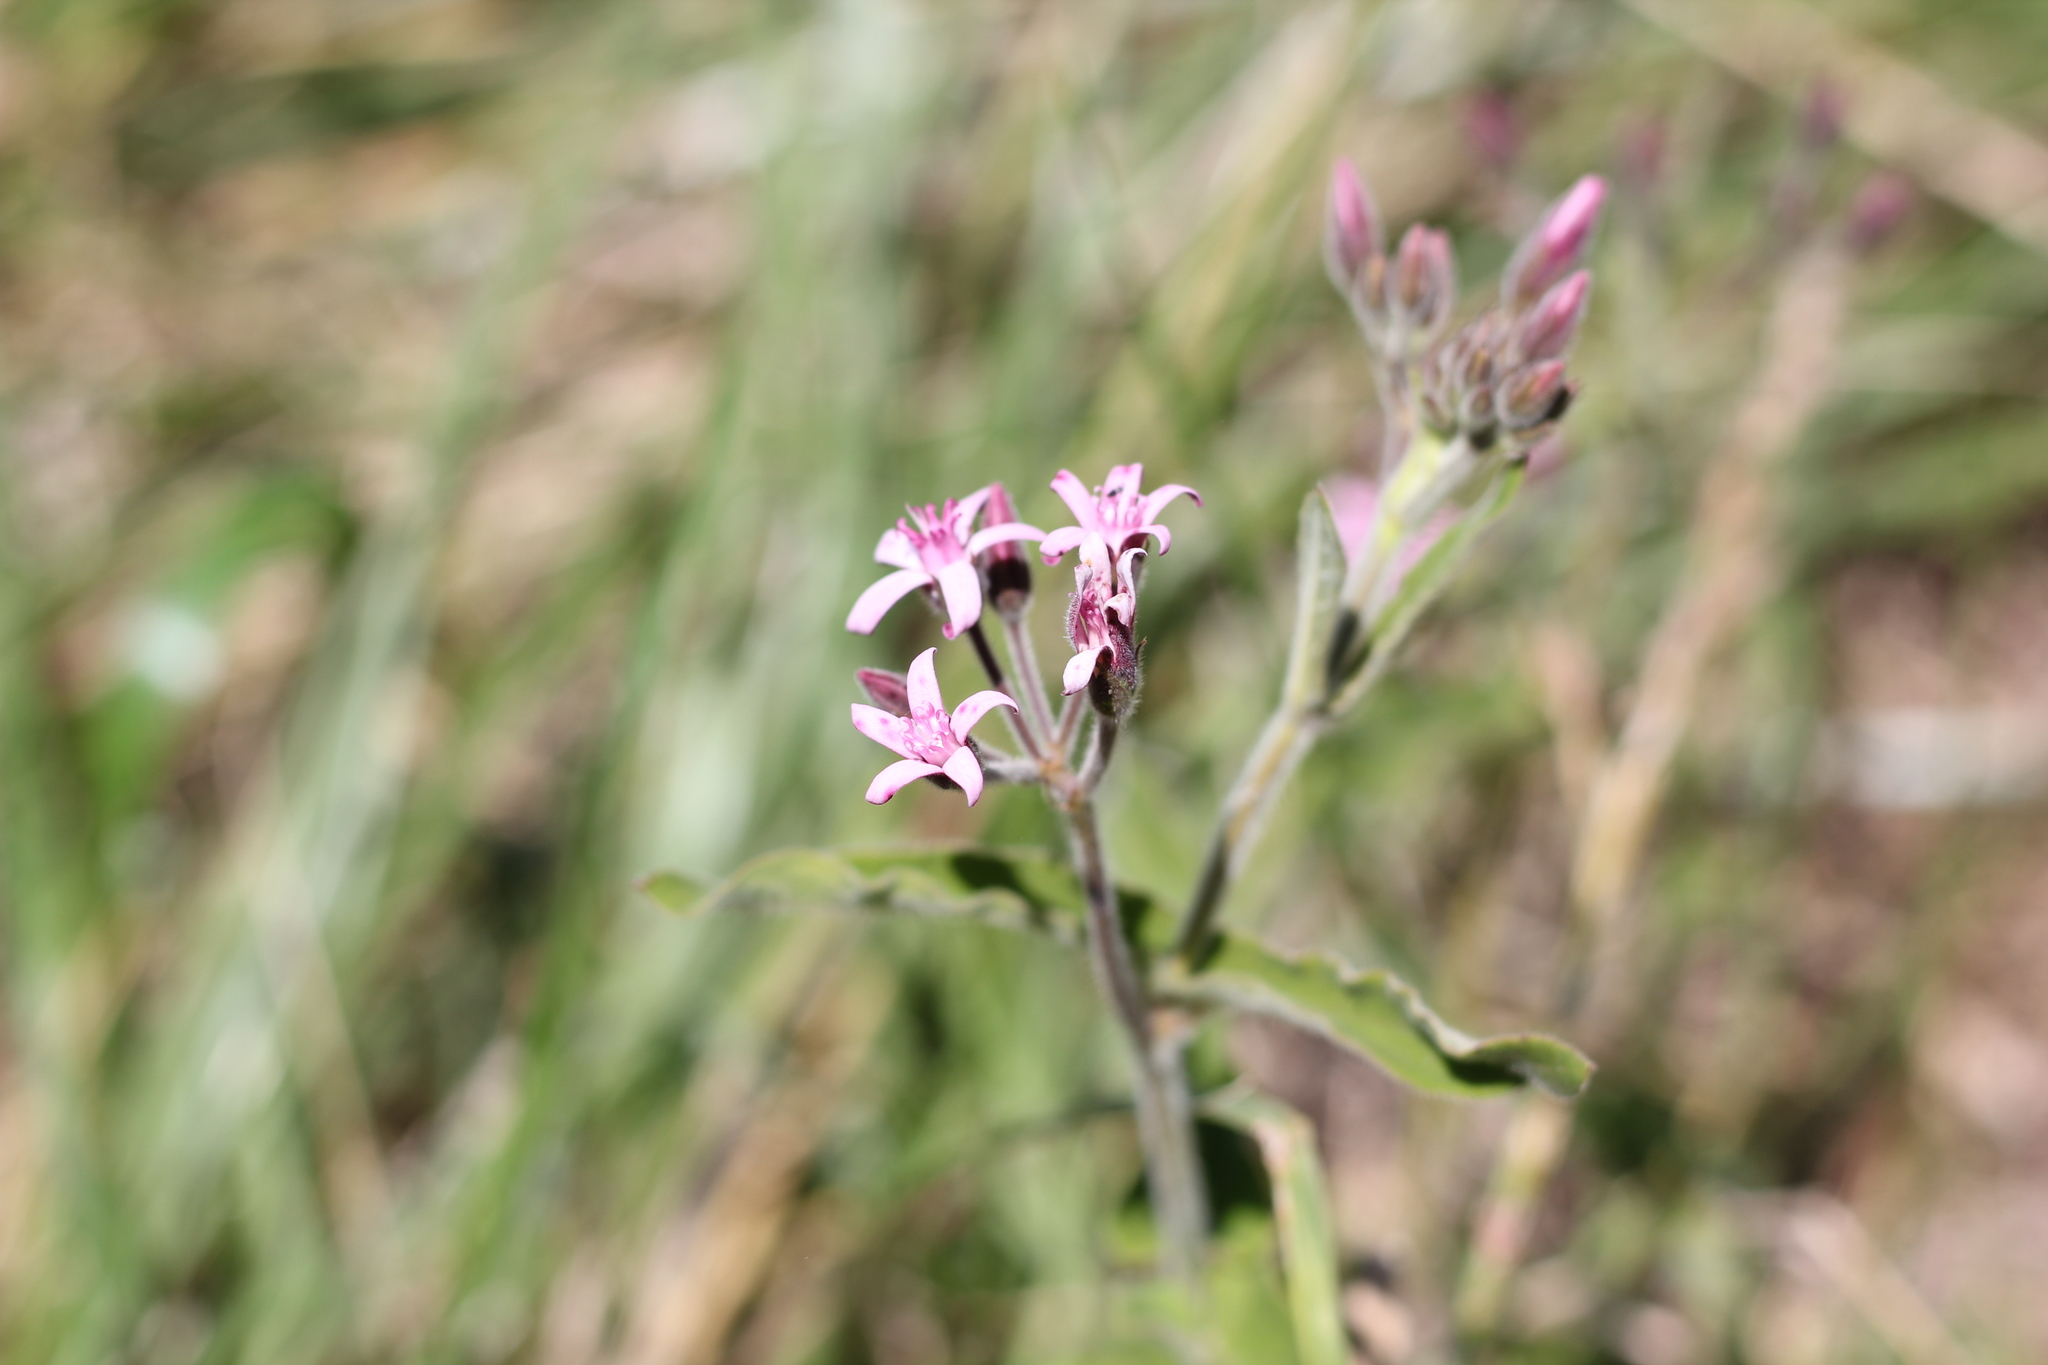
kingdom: Plantae
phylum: Tracheophyta
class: Magnoliopsida
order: Gentianales
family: Apocynaceae
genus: Oxypetalum
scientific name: Oxypetalum solanoides
